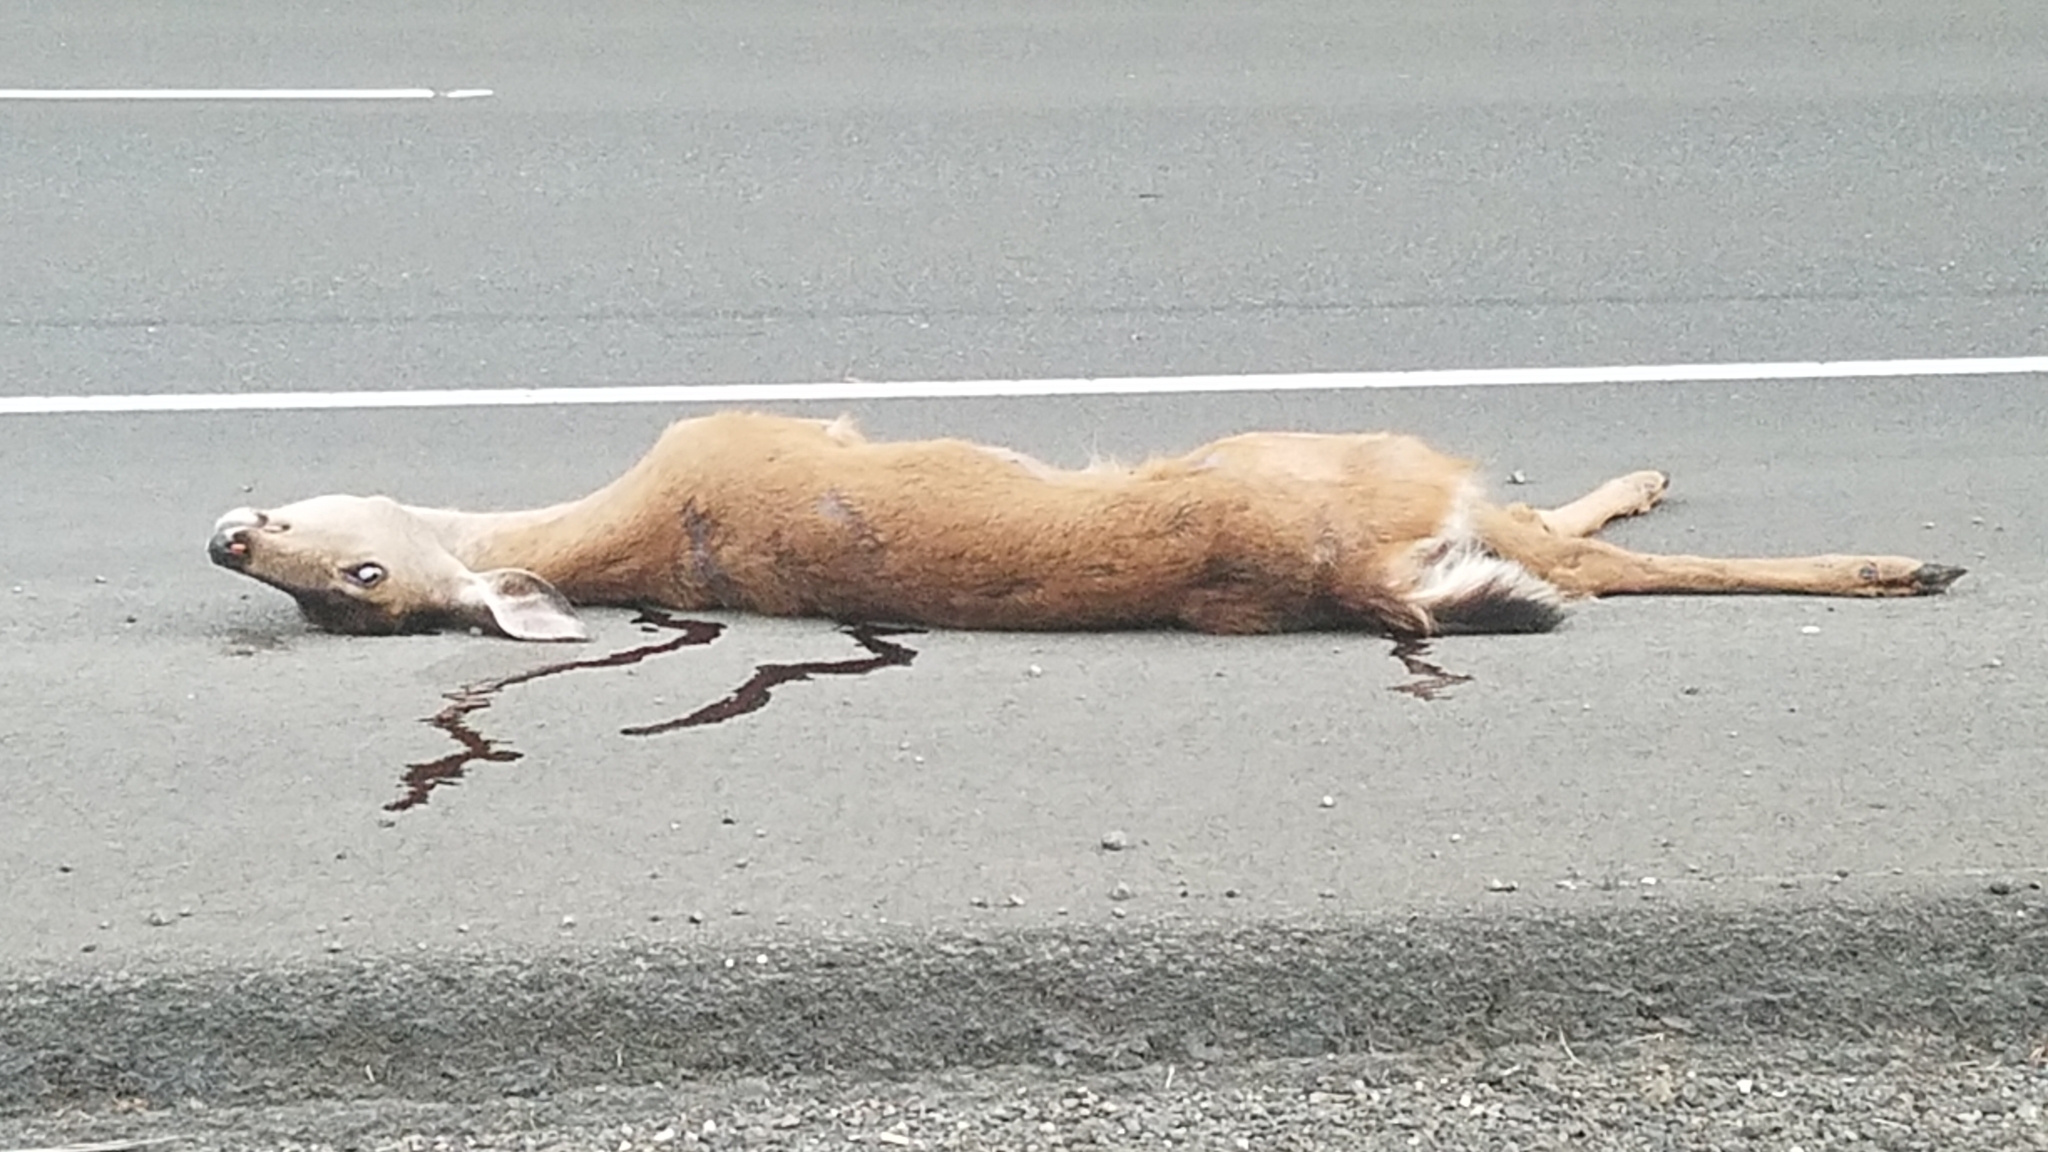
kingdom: Animalia
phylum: Chordata
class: Mammalia
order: Artiodactyla
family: Cervidae
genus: Odocoileus
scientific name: Odocoileus hemionus
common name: Mule deer
